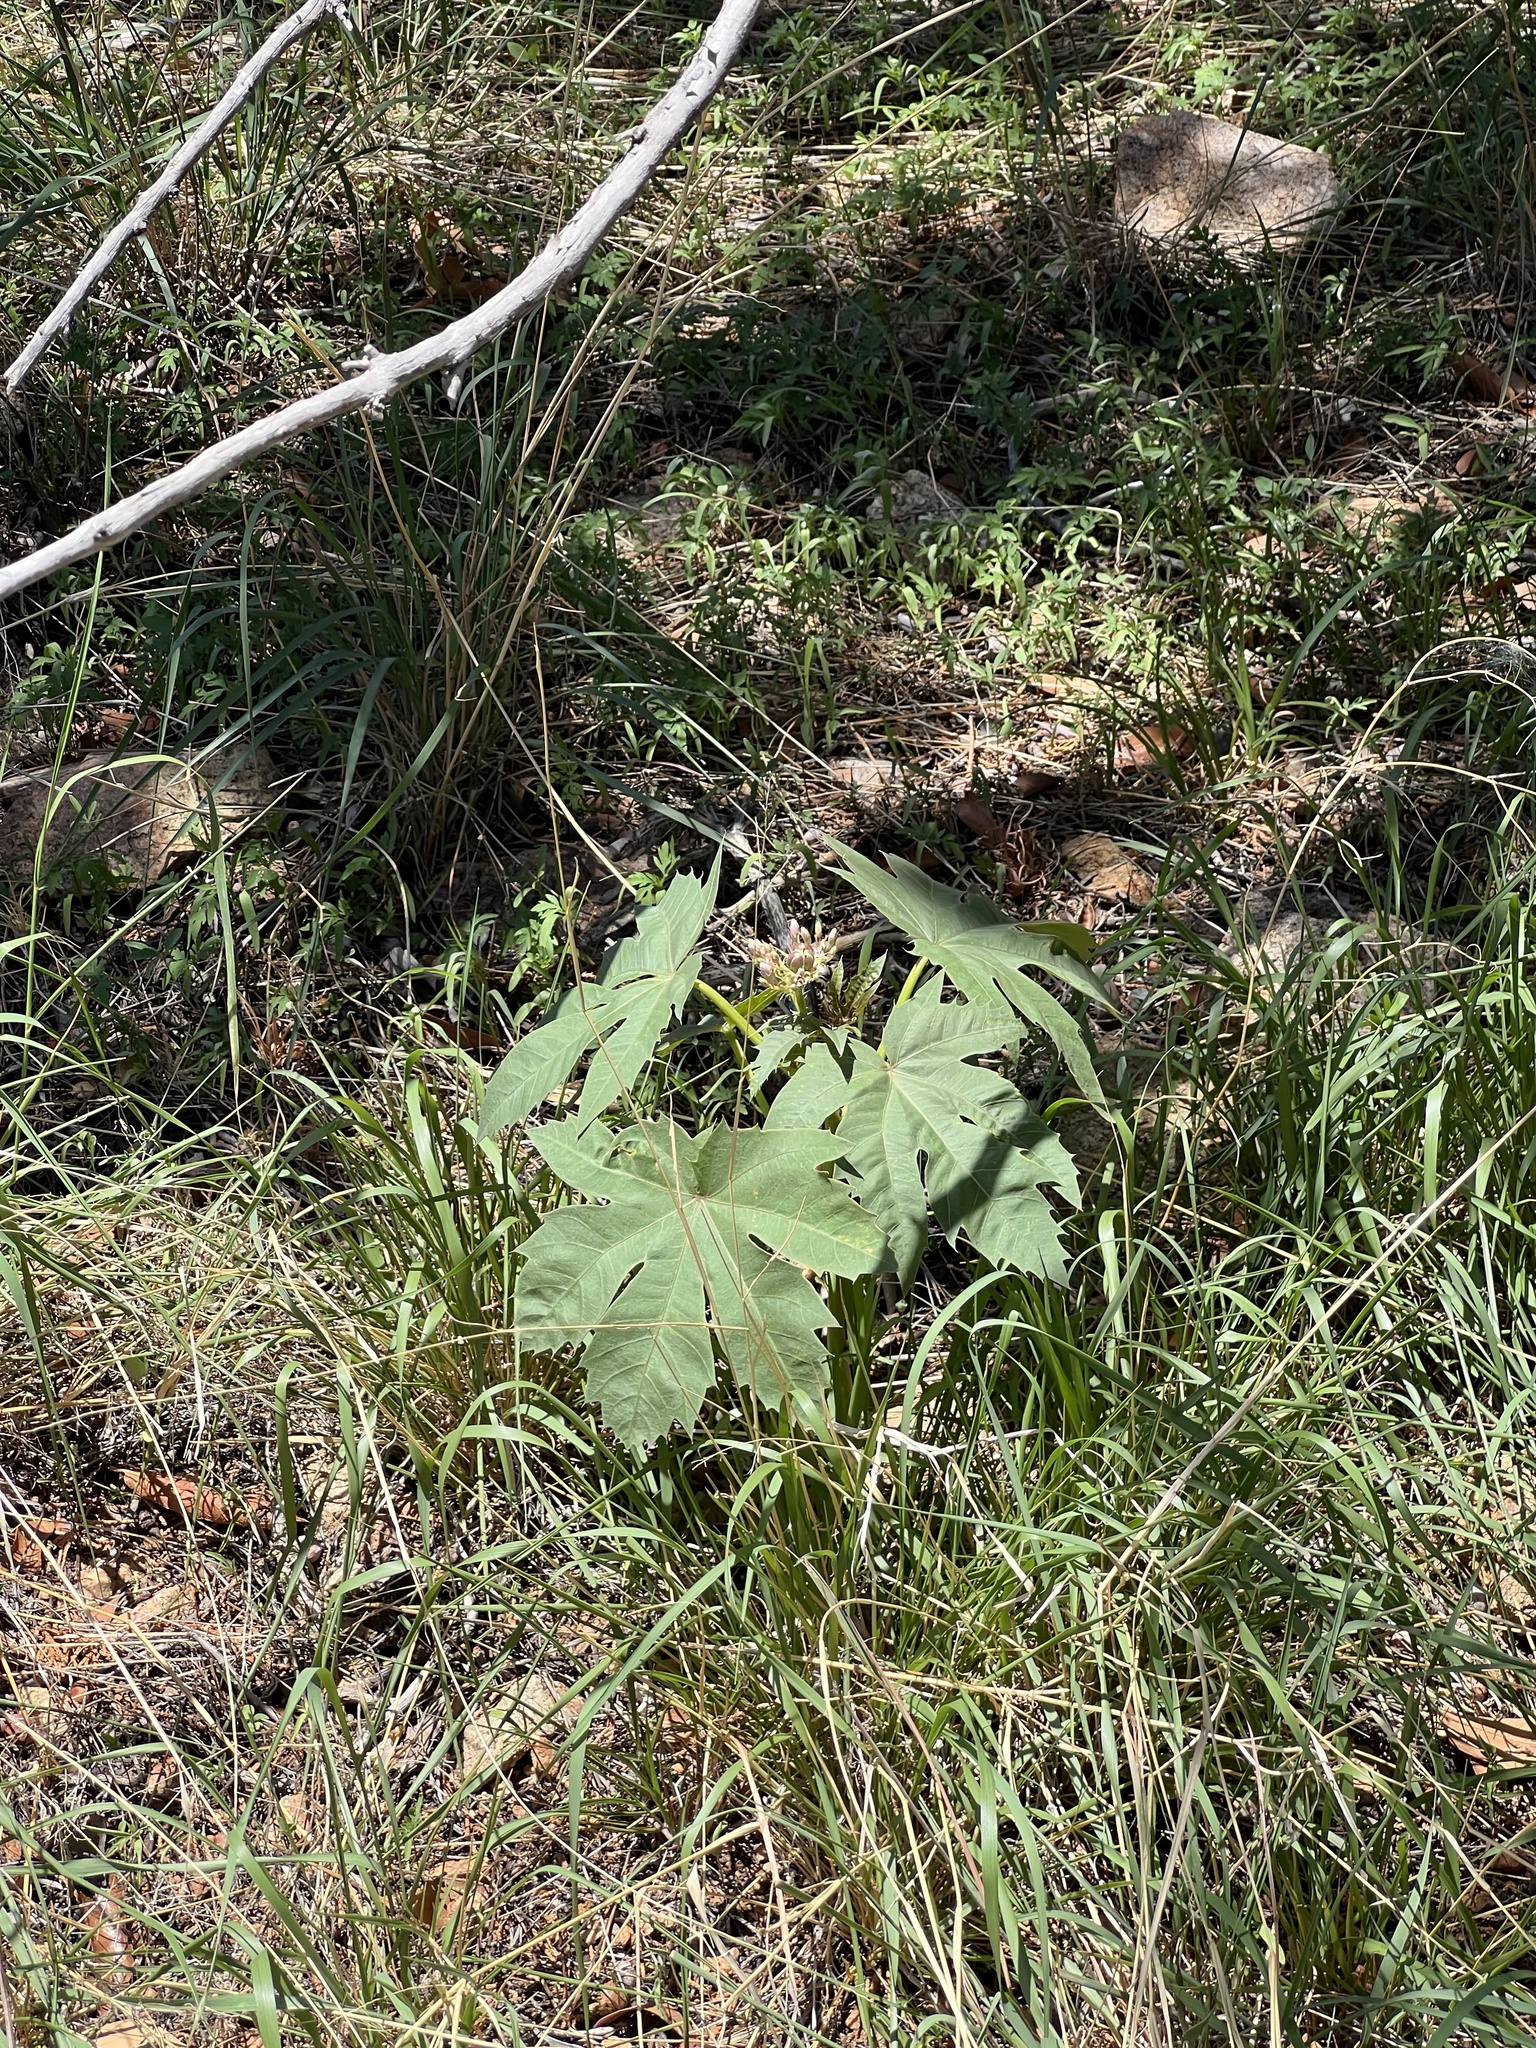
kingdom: Plantae
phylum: Tracheophyta
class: Magnoliopsida
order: Malpighiales
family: Euphorbiaceae
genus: Jatropha
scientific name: Jatropha macrorhiza
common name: Ragged nettlespurge
